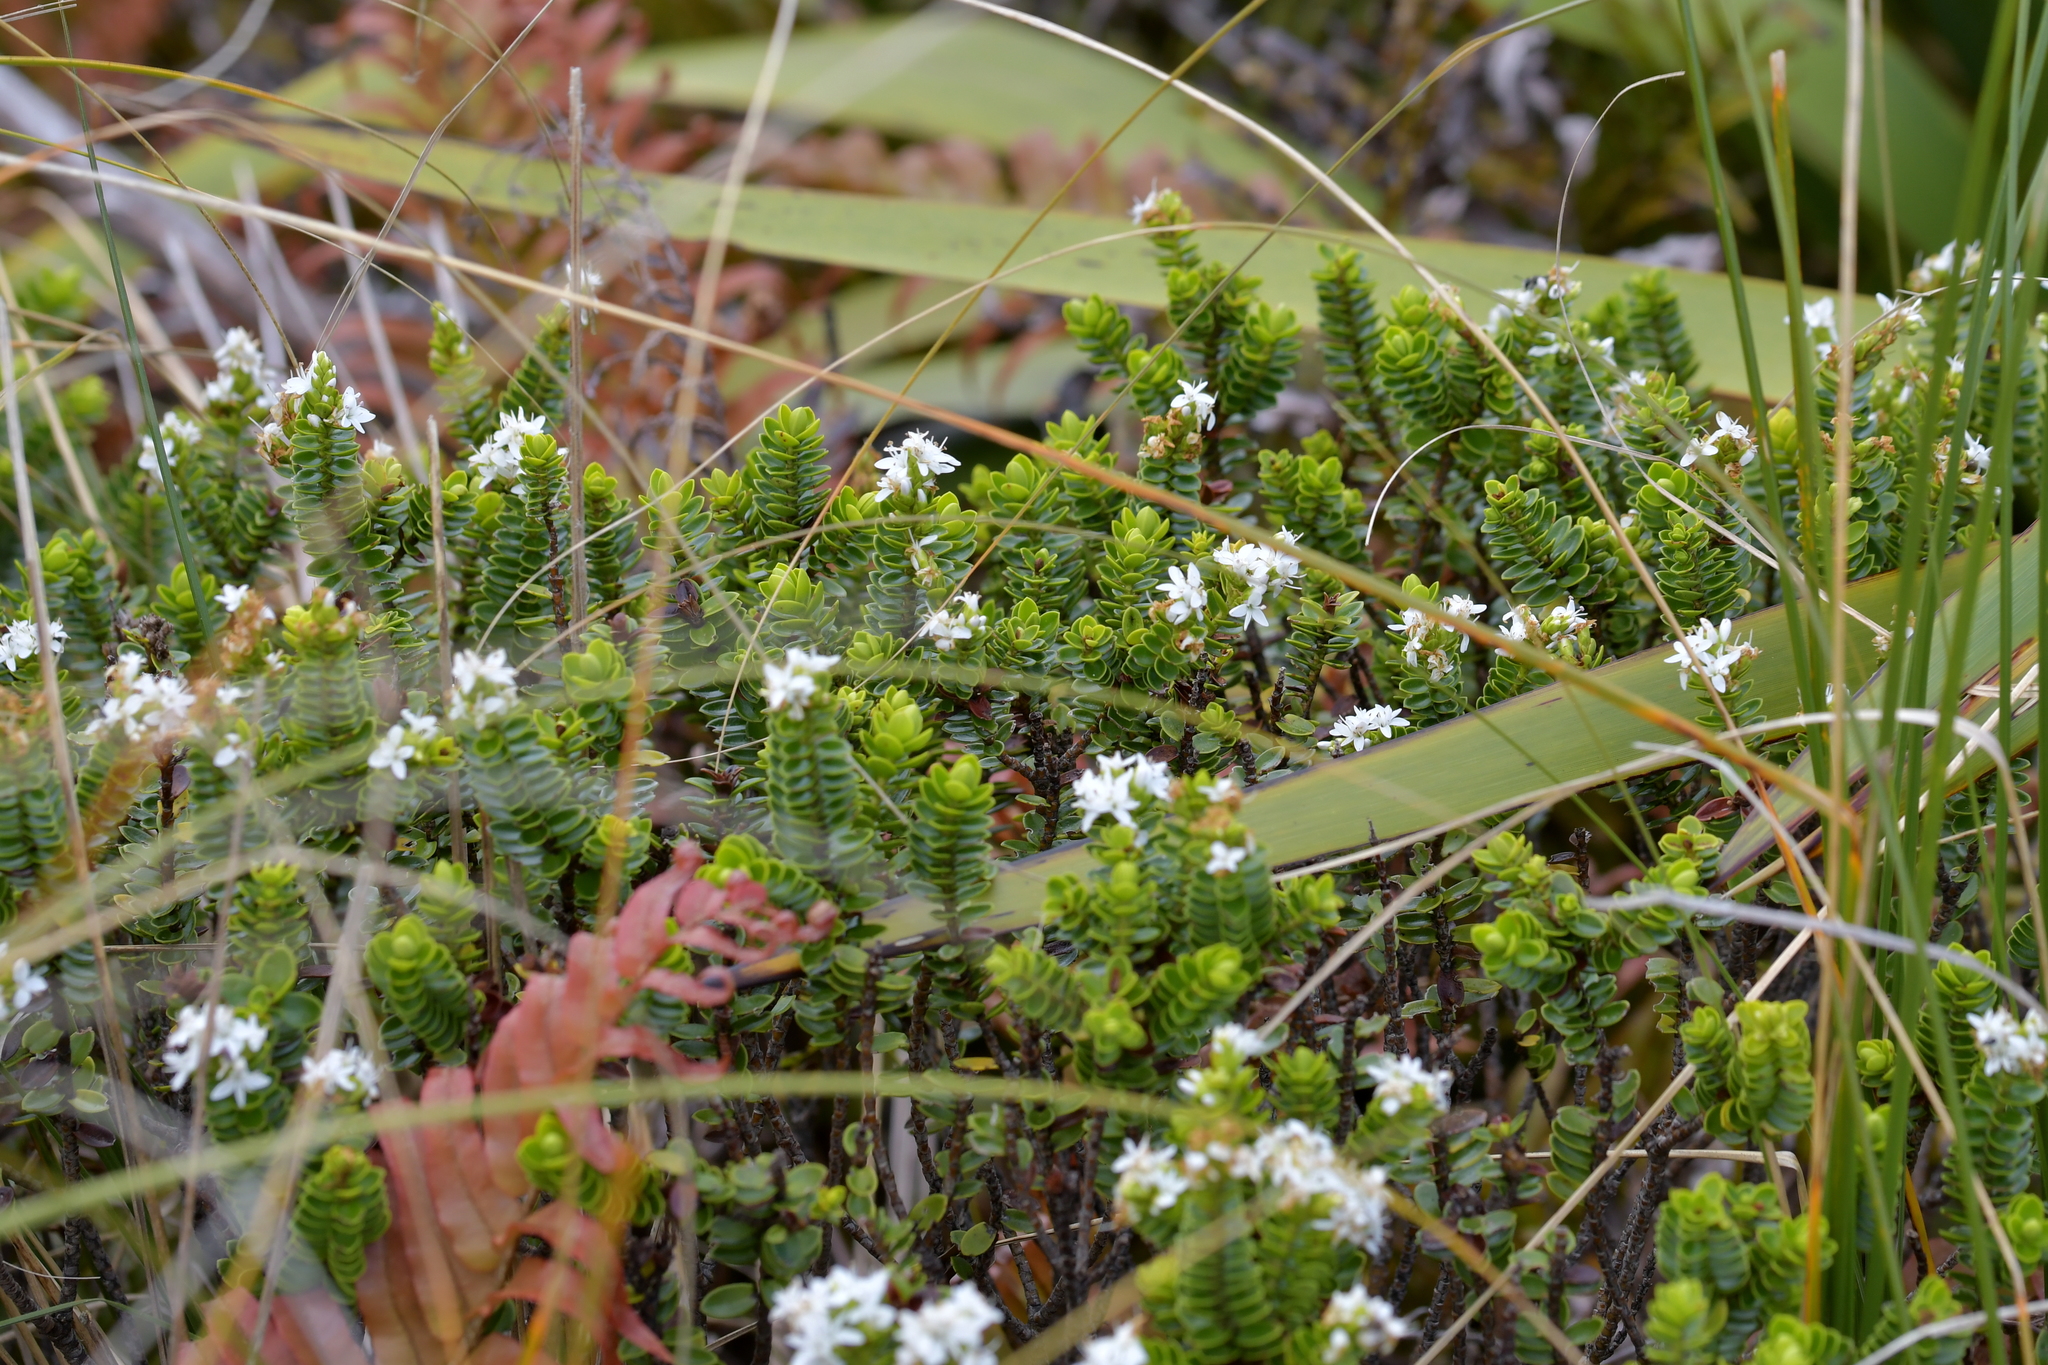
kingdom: Plantae
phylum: Tracheophyta
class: Magnoliopsida
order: Lamiales
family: Plantaginaceae
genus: Veronica
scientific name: Veronica odora
